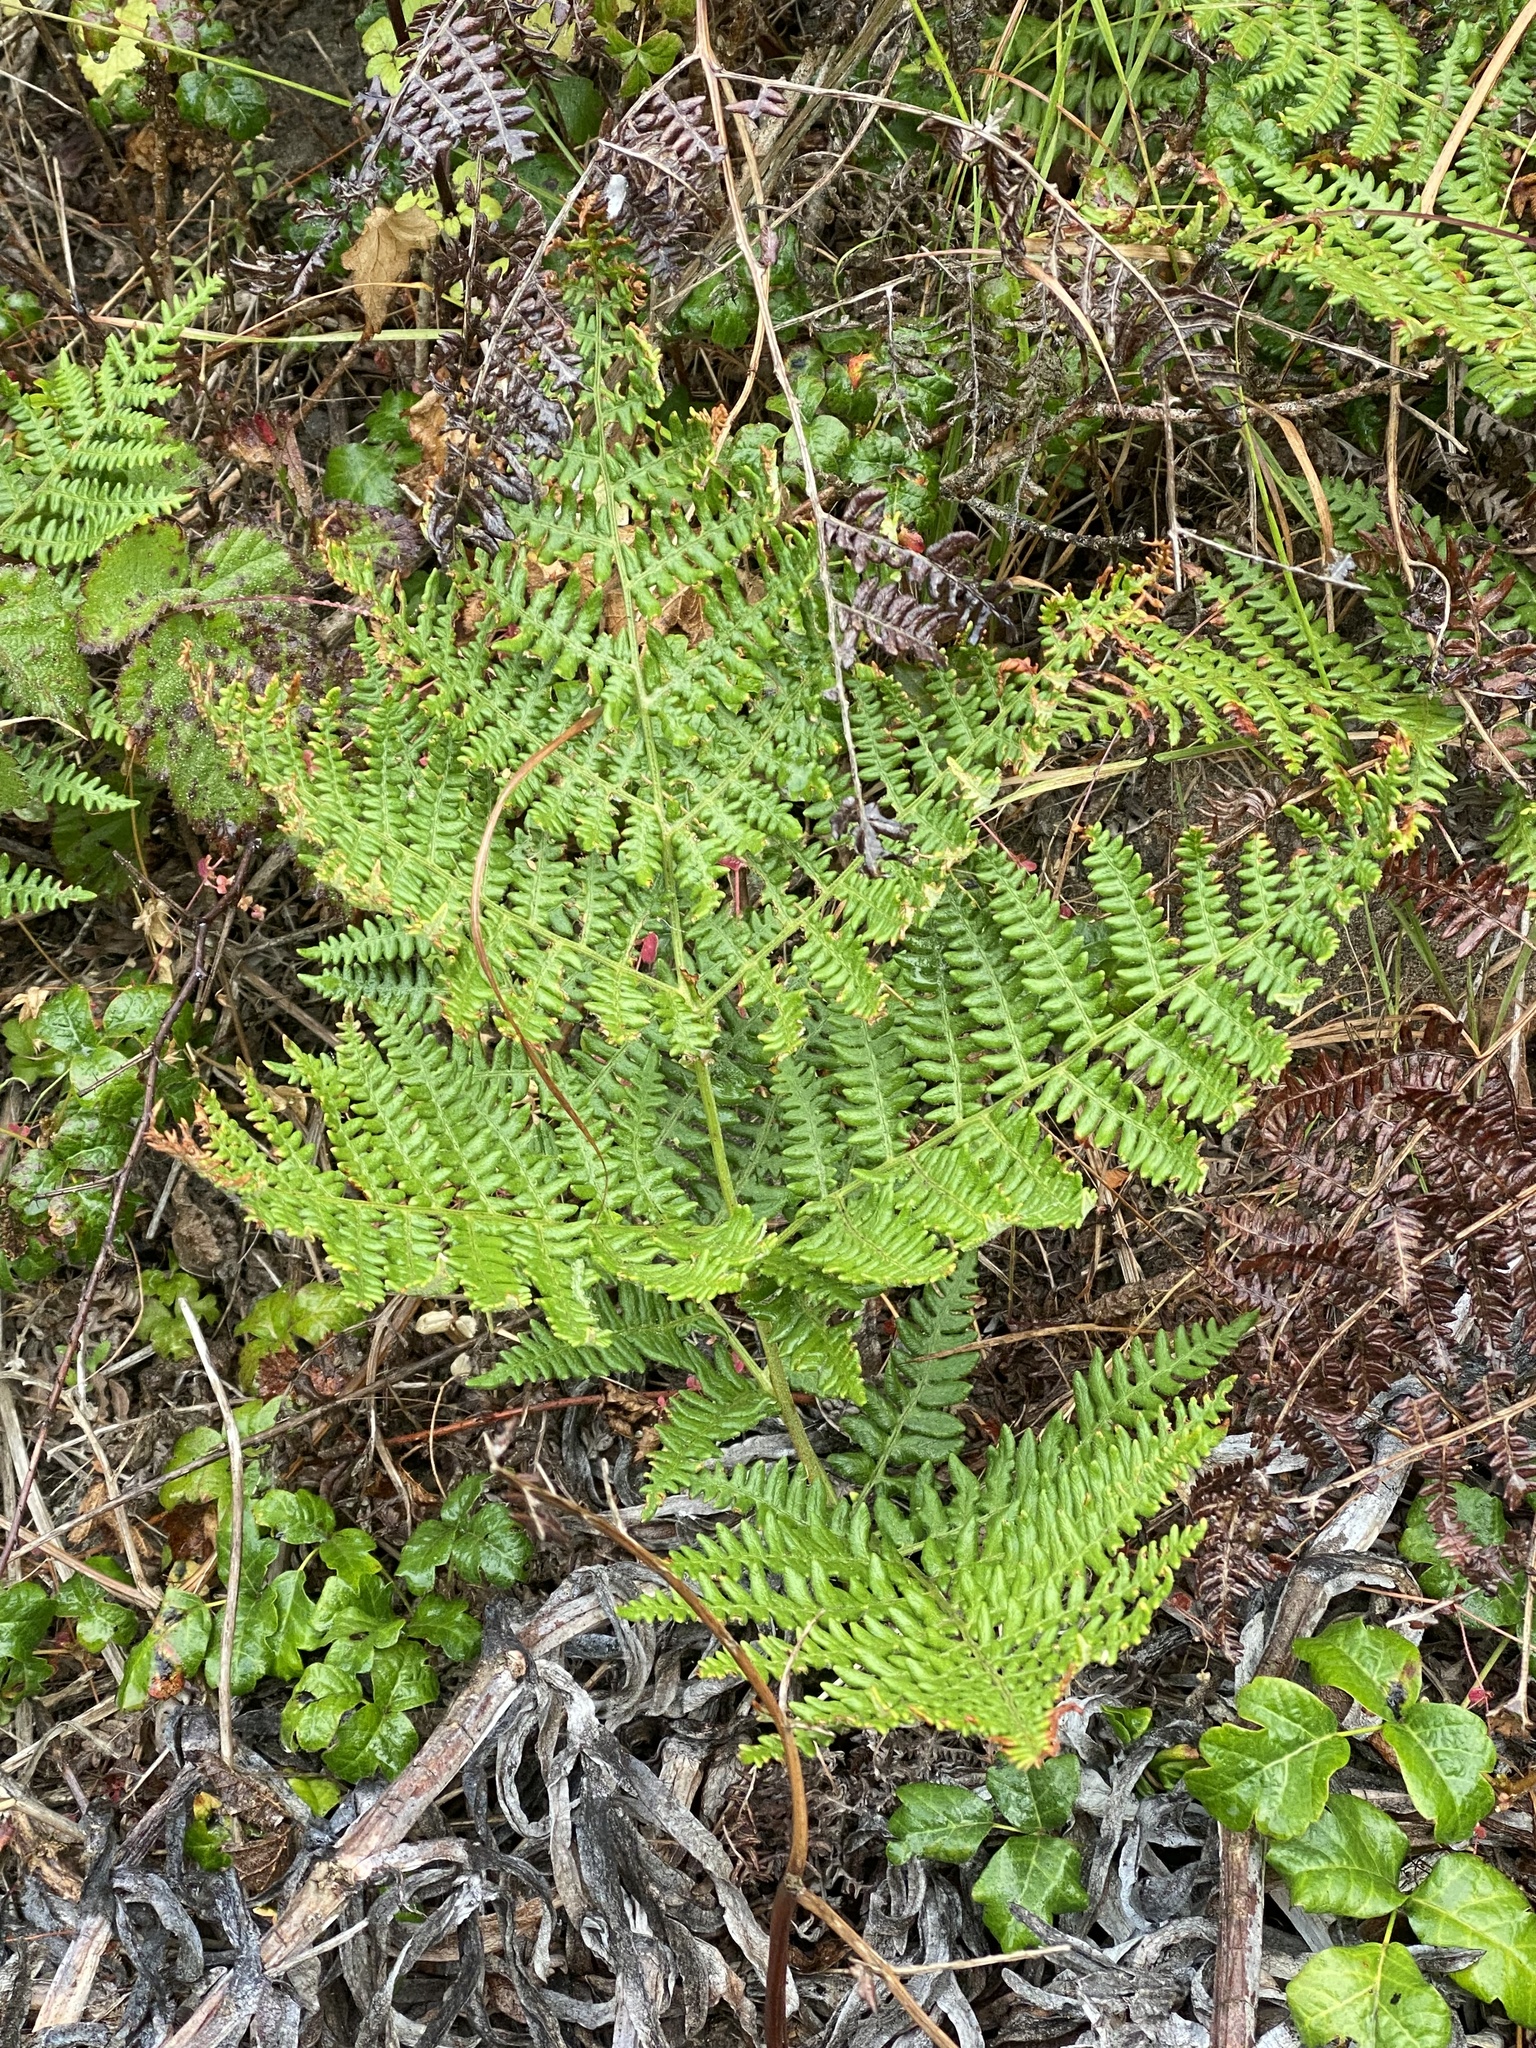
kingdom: Plantae
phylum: Tracheophyta
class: Polypodiopsida
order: Polypodiales
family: Dennstaedtiaceae
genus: Pteridium
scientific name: Pteridium aquilinum
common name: Bracken
